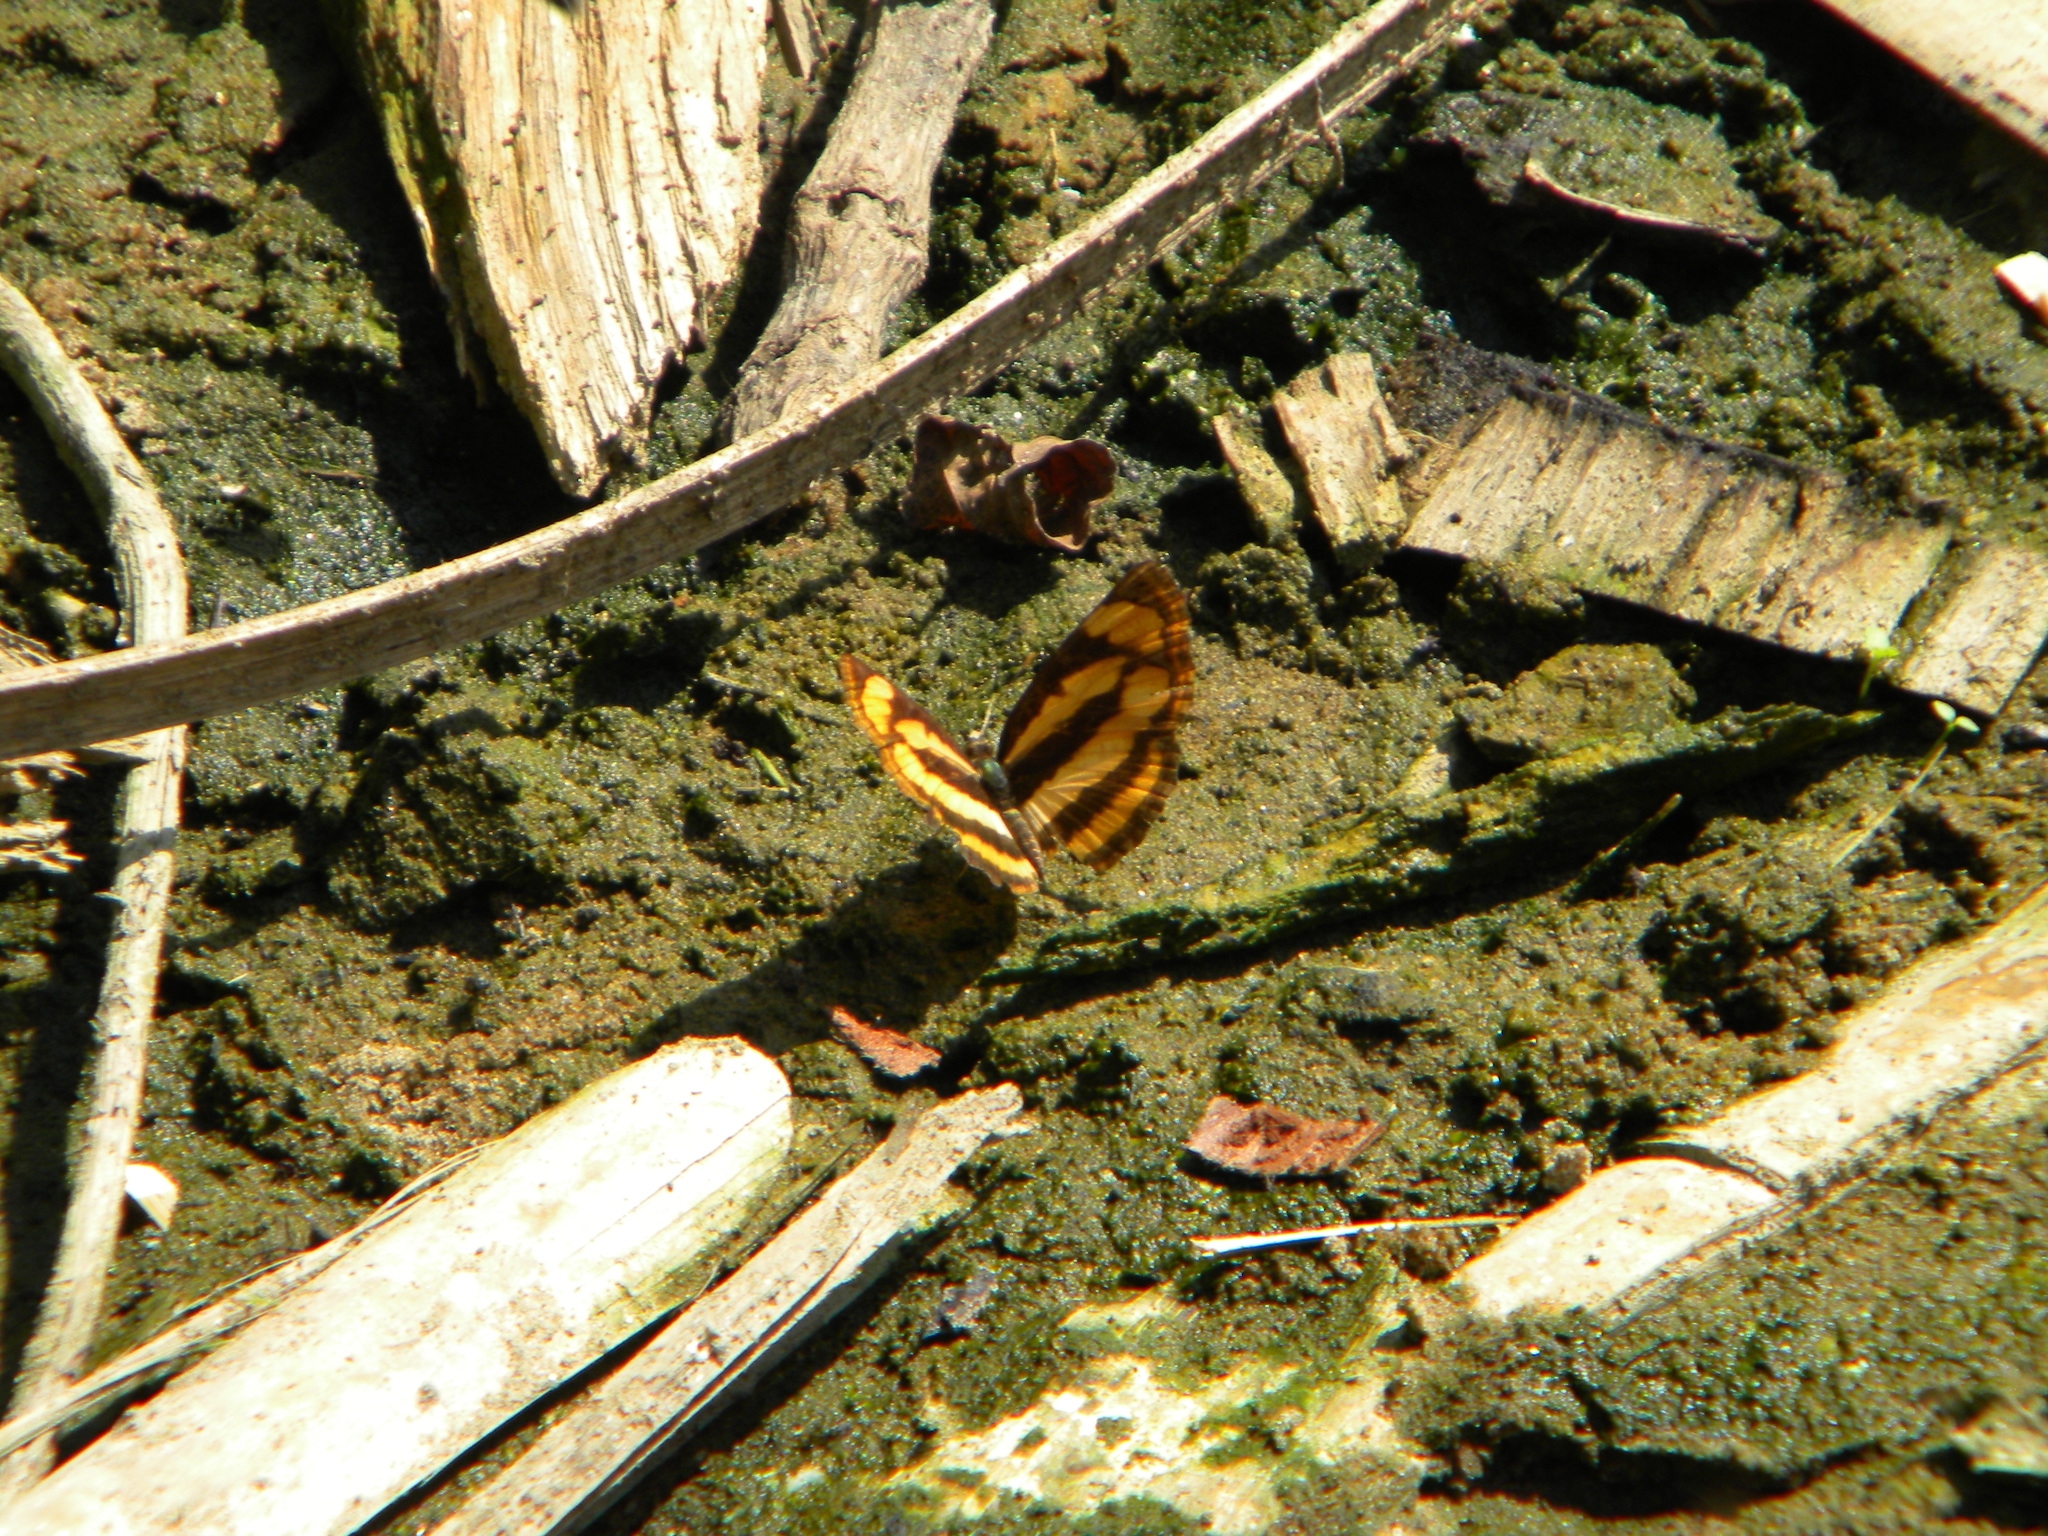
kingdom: Animalia
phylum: Arthropoda
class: Insecta
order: Lepidoptera
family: Nymphalidae
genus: Pantoporia
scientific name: Pantoporia hordonia
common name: Common lascar
